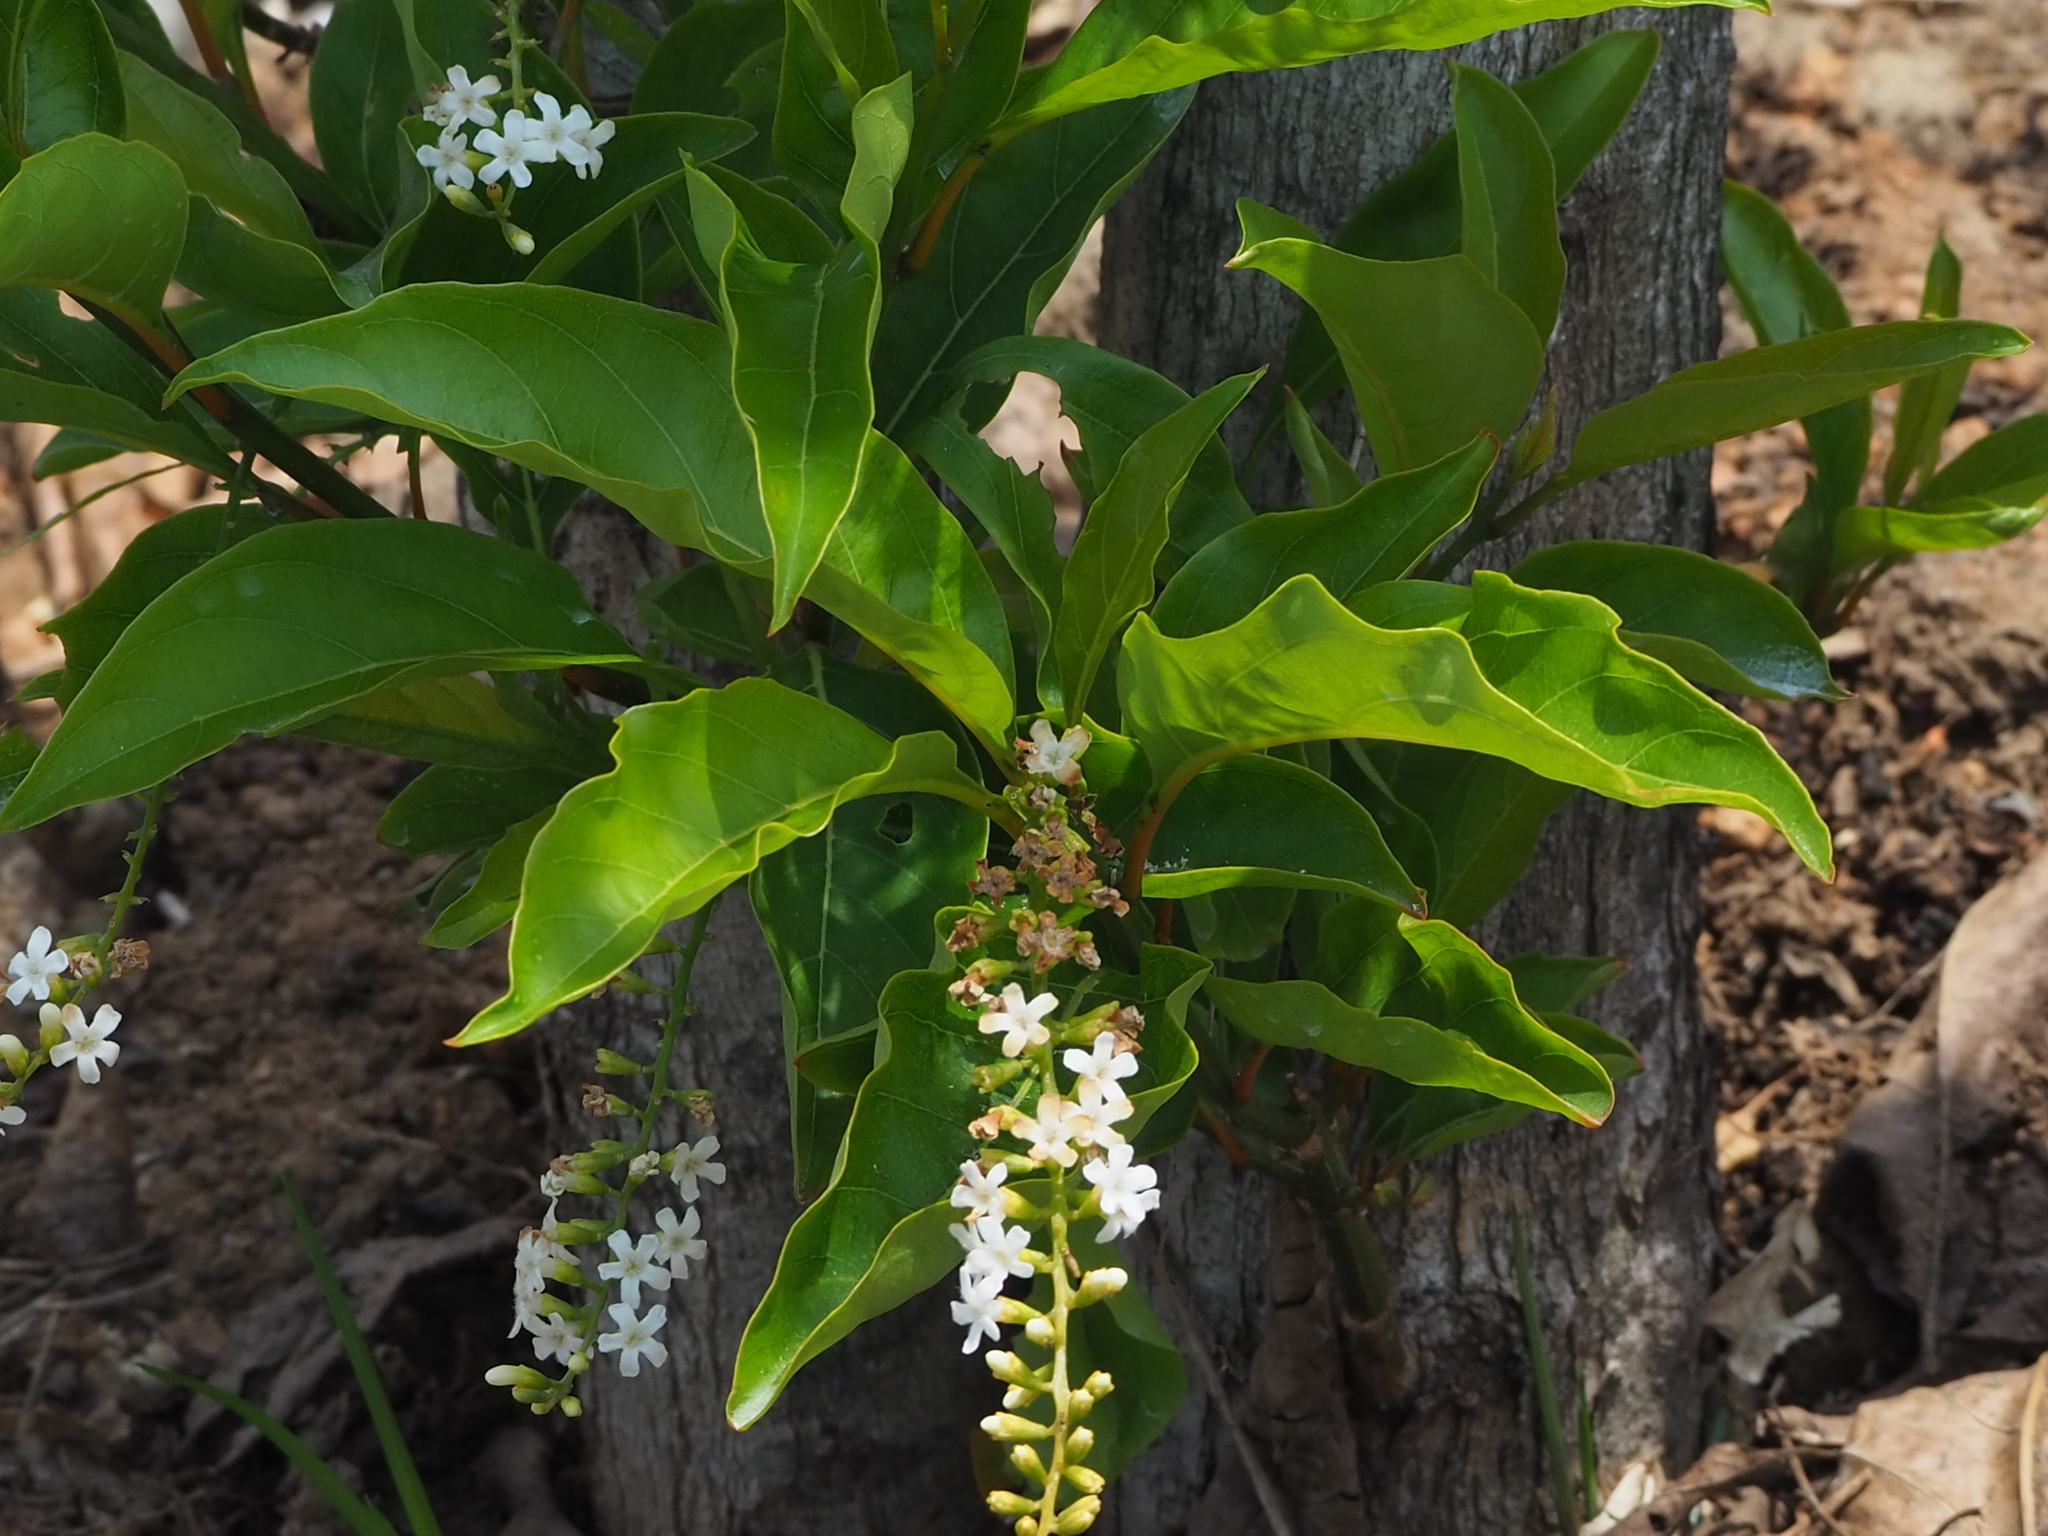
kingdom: Plantae
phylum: Tracheophyta
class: Magnoliopsida
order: Lamiales
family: Verbenaceae
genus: Citharexylum
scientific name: Citharexylum spinosum
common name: Fiddlewood
